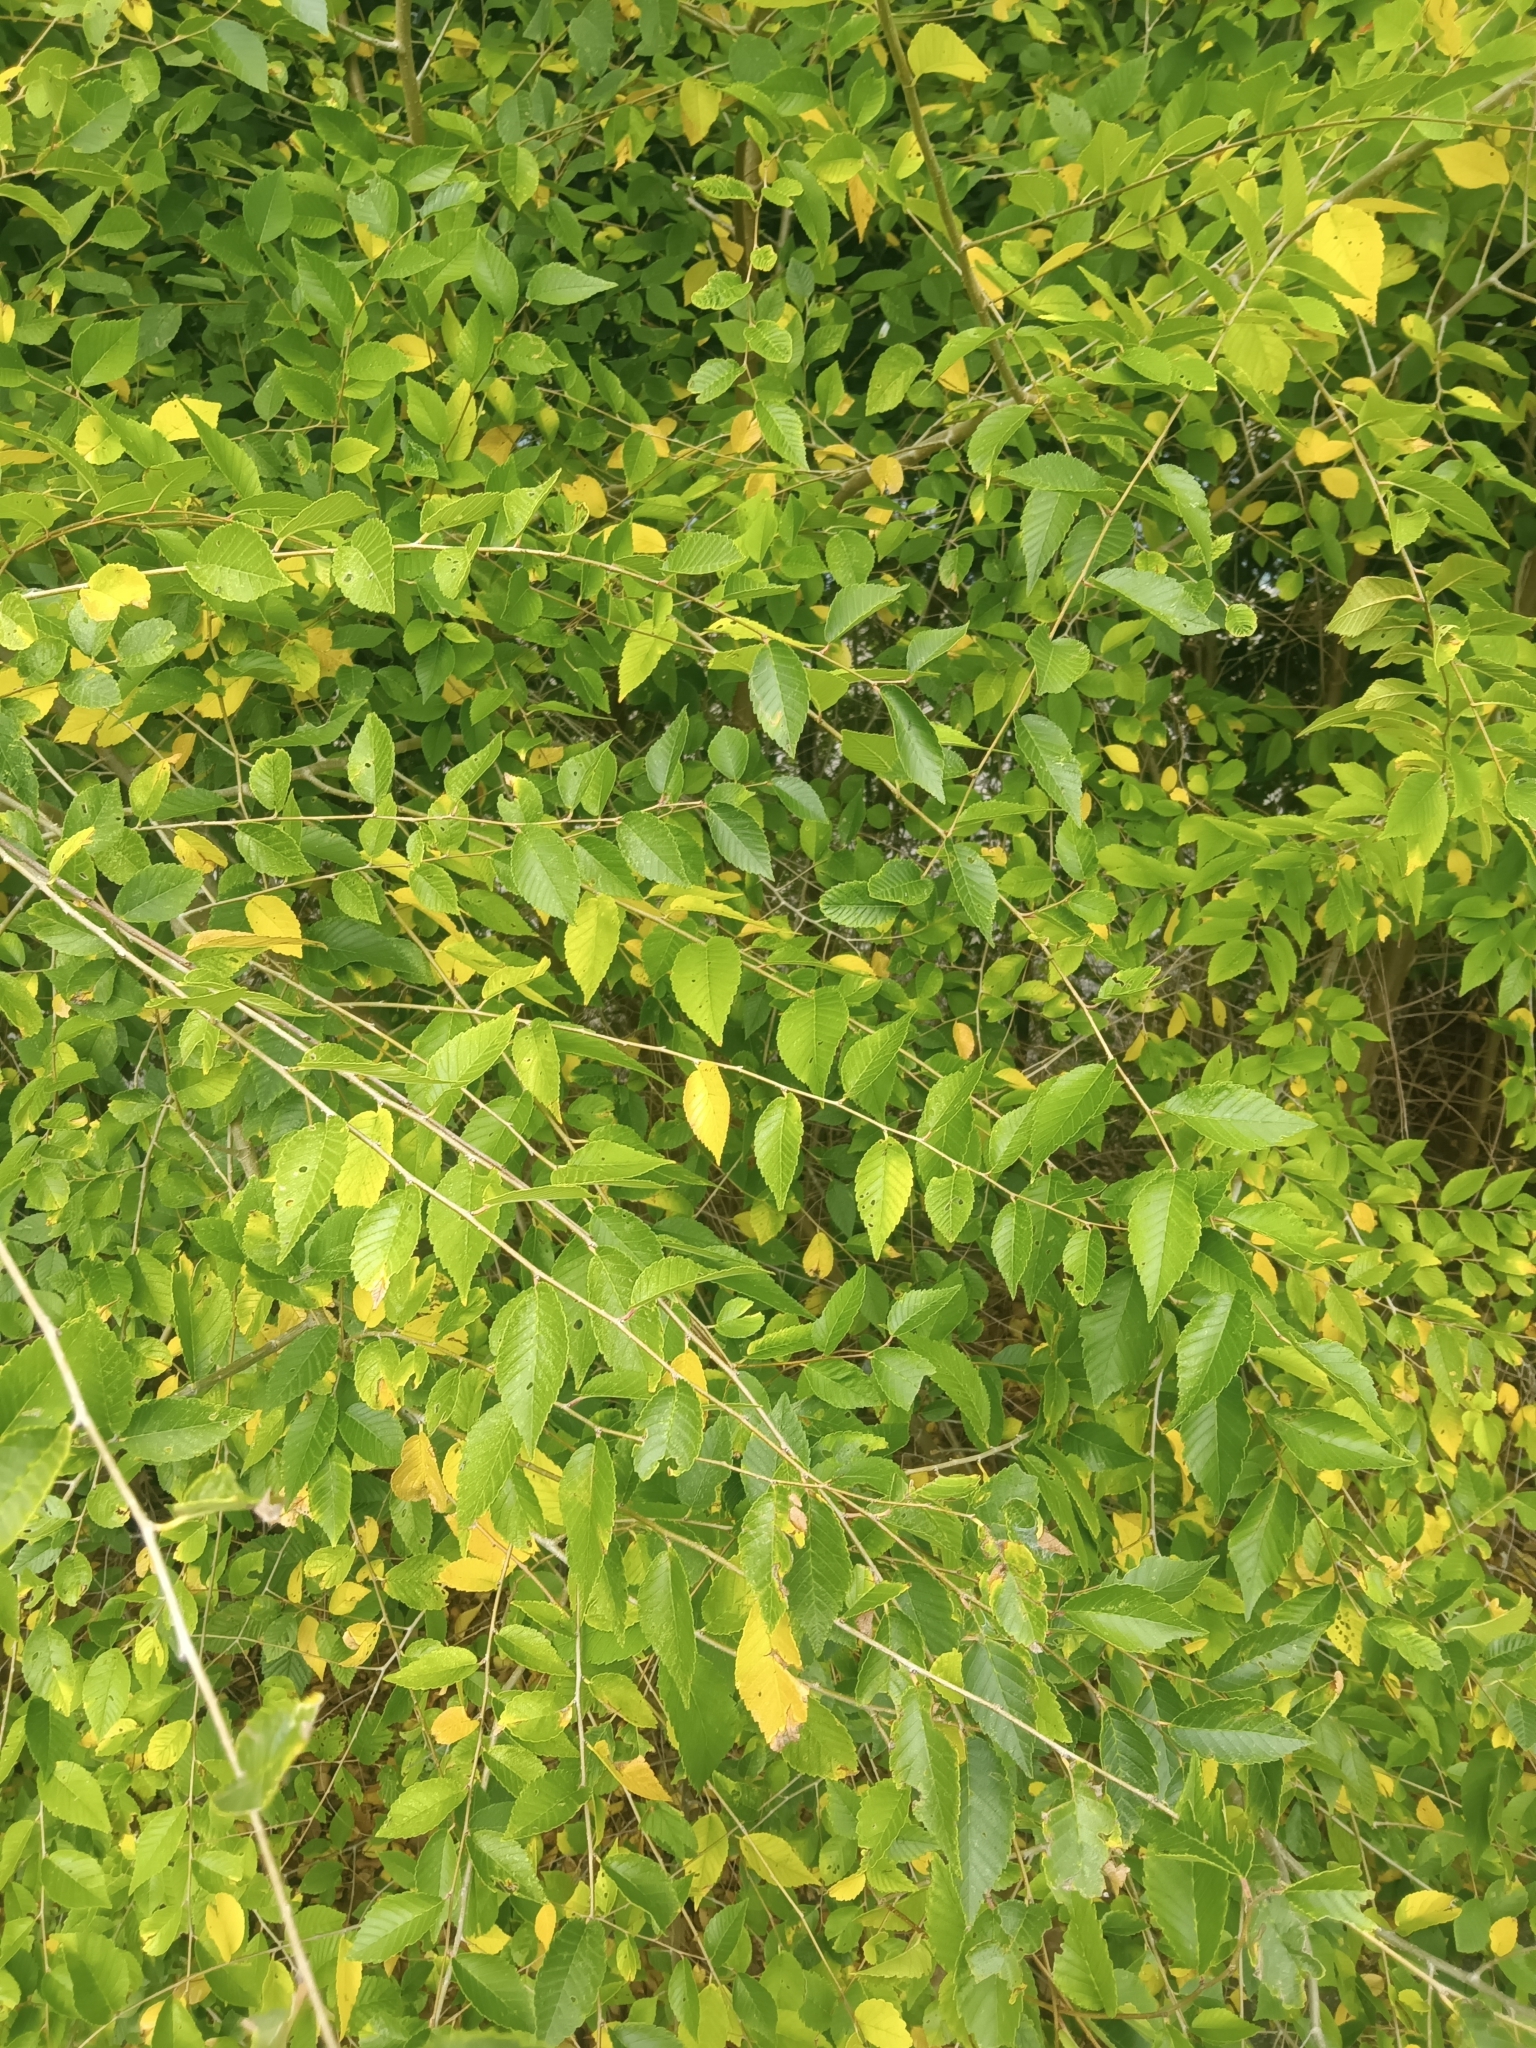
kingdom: Plantae
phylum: Tracheophyta
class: Magnoliopsida
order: Rosales
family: Ulmaceae
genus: Ulmus
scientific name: Ulmus pumila
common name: Siberian elm
